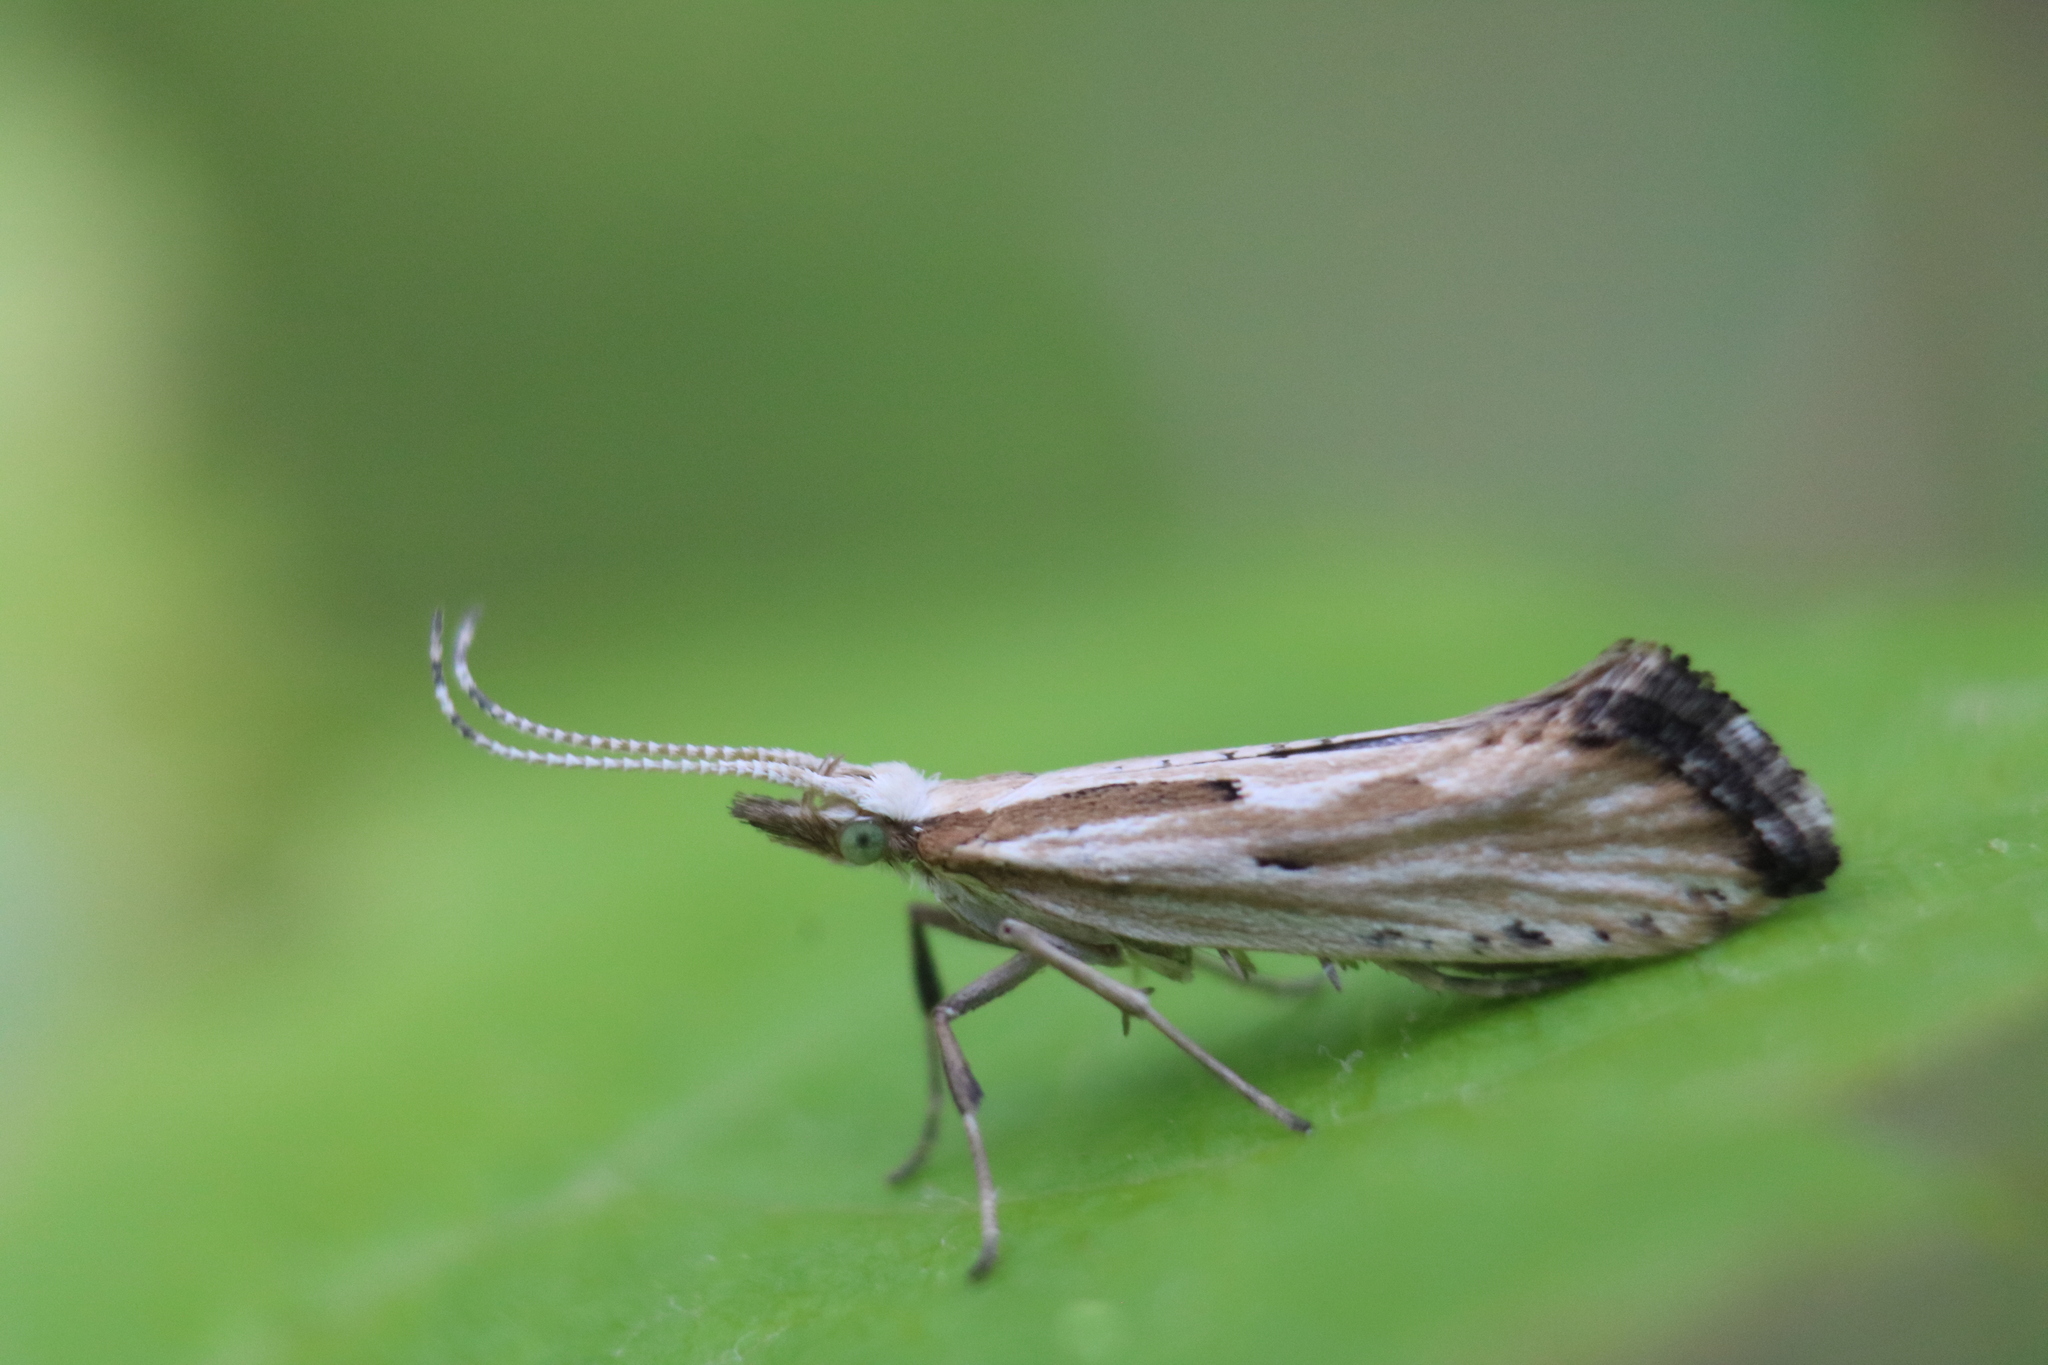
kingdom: Animalia
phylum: Arthropoda
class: Insecta
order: Lepidoptera
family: Plutellidae
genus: Plutella
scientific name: Plutella porrectella
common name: Dame's rocket moth
